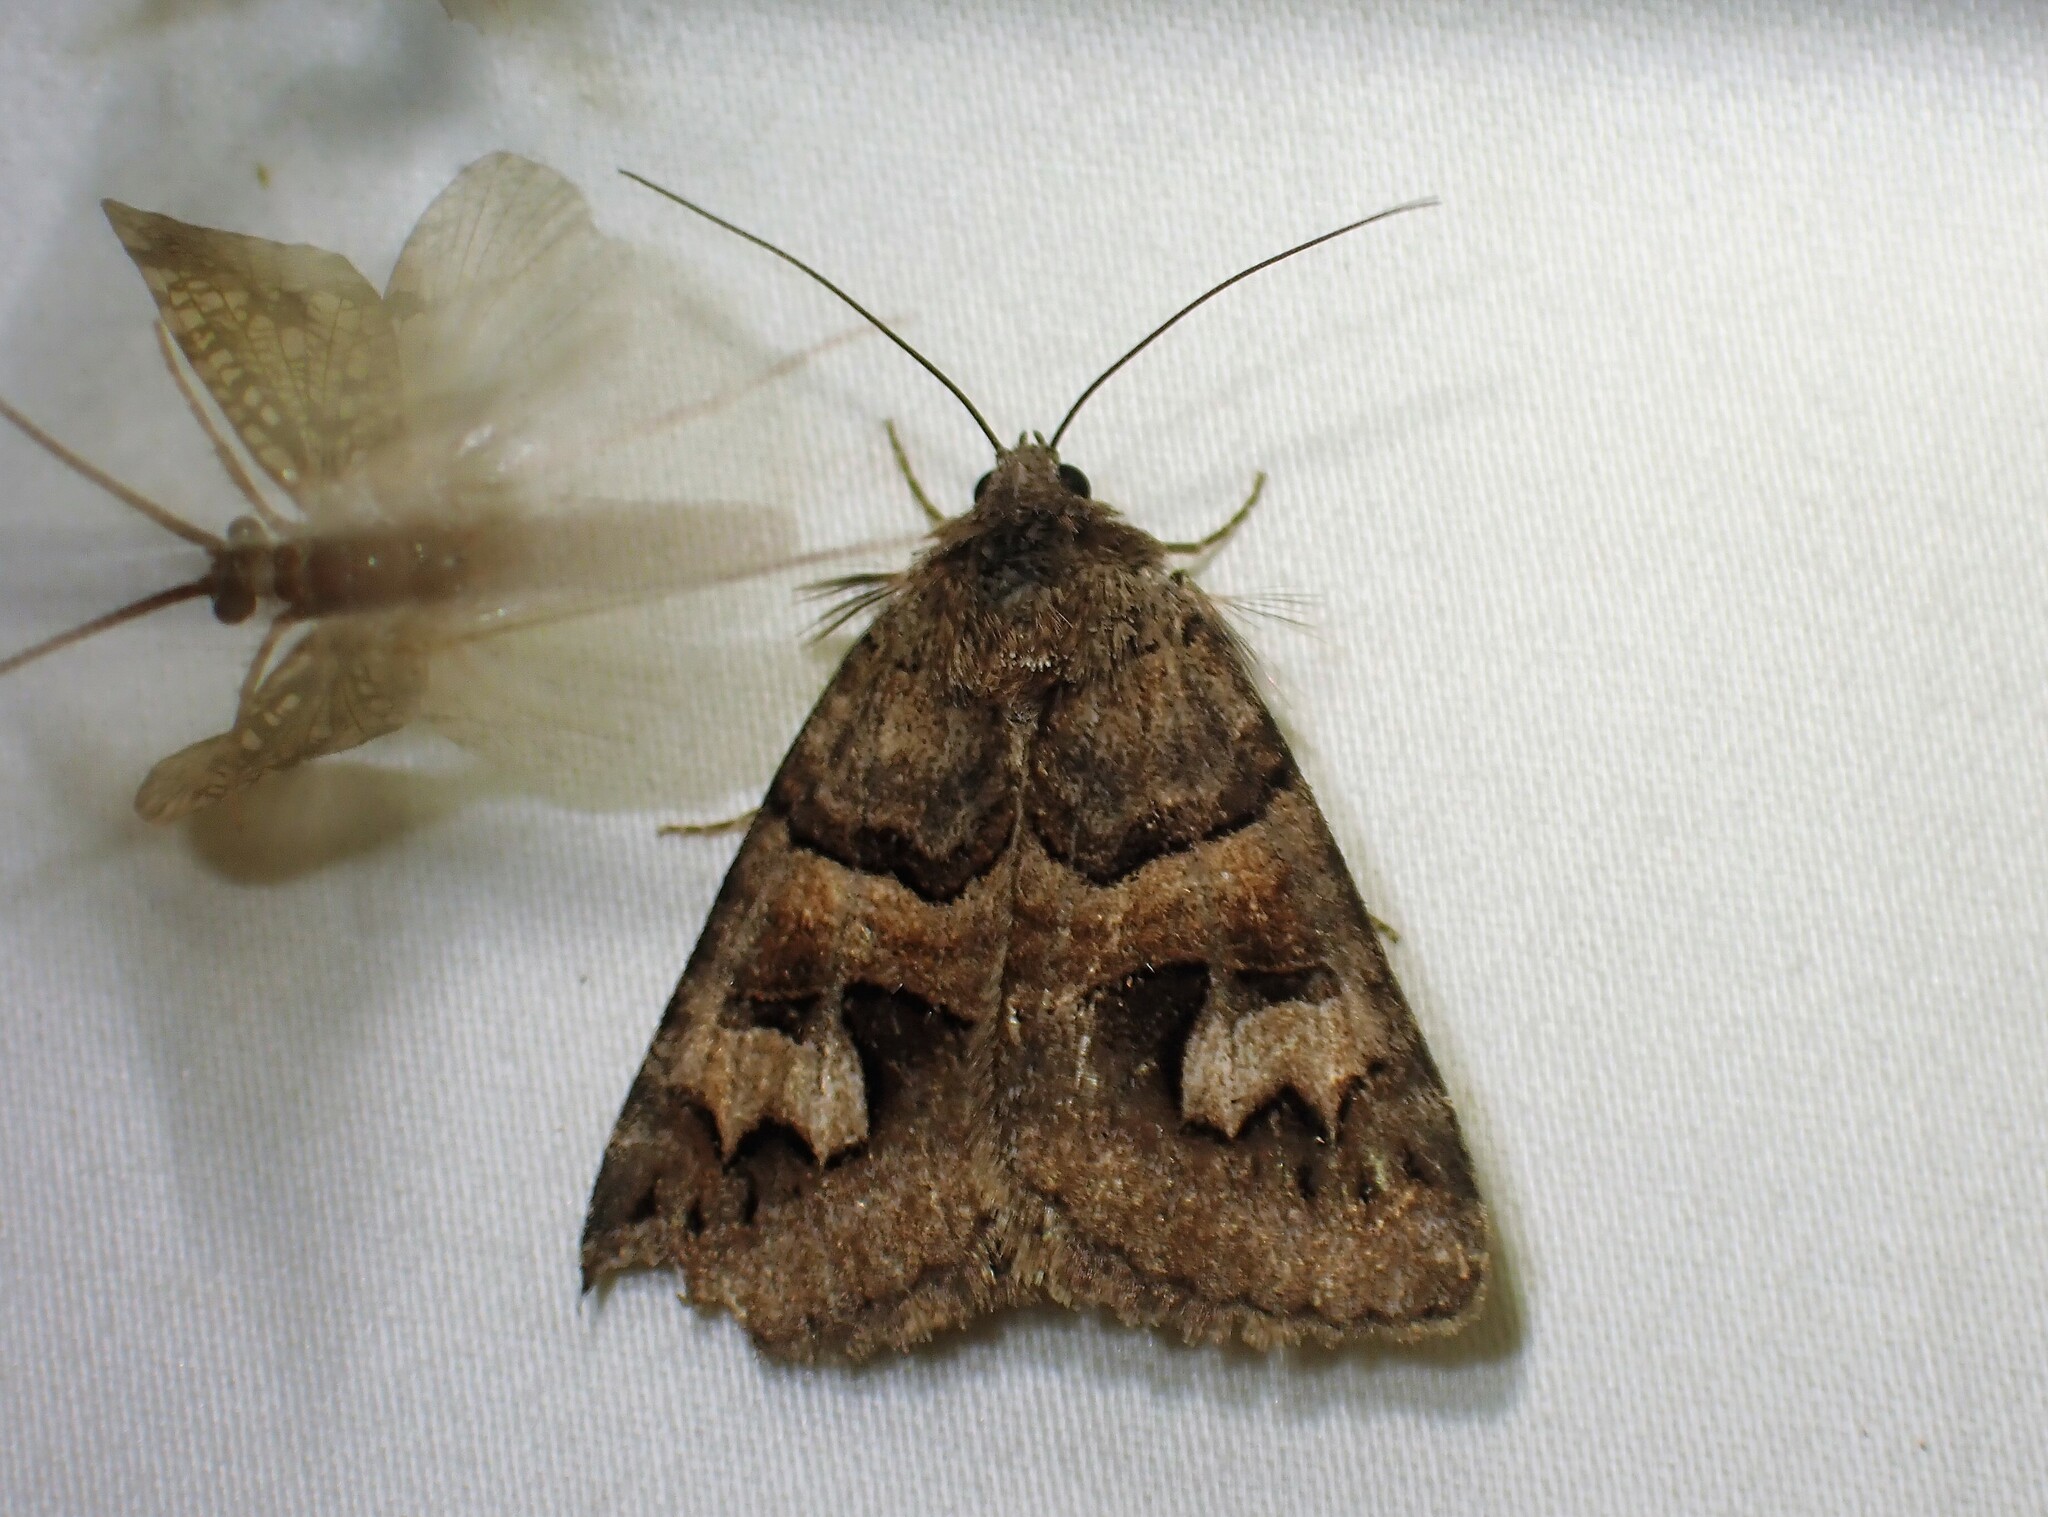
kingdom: Animalia
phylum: Arthropoda
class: Insecta
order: Lepidoptera
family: Erebidae
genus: Drasteria
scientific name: Drasteria adumbrata
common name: Shadowy arches
